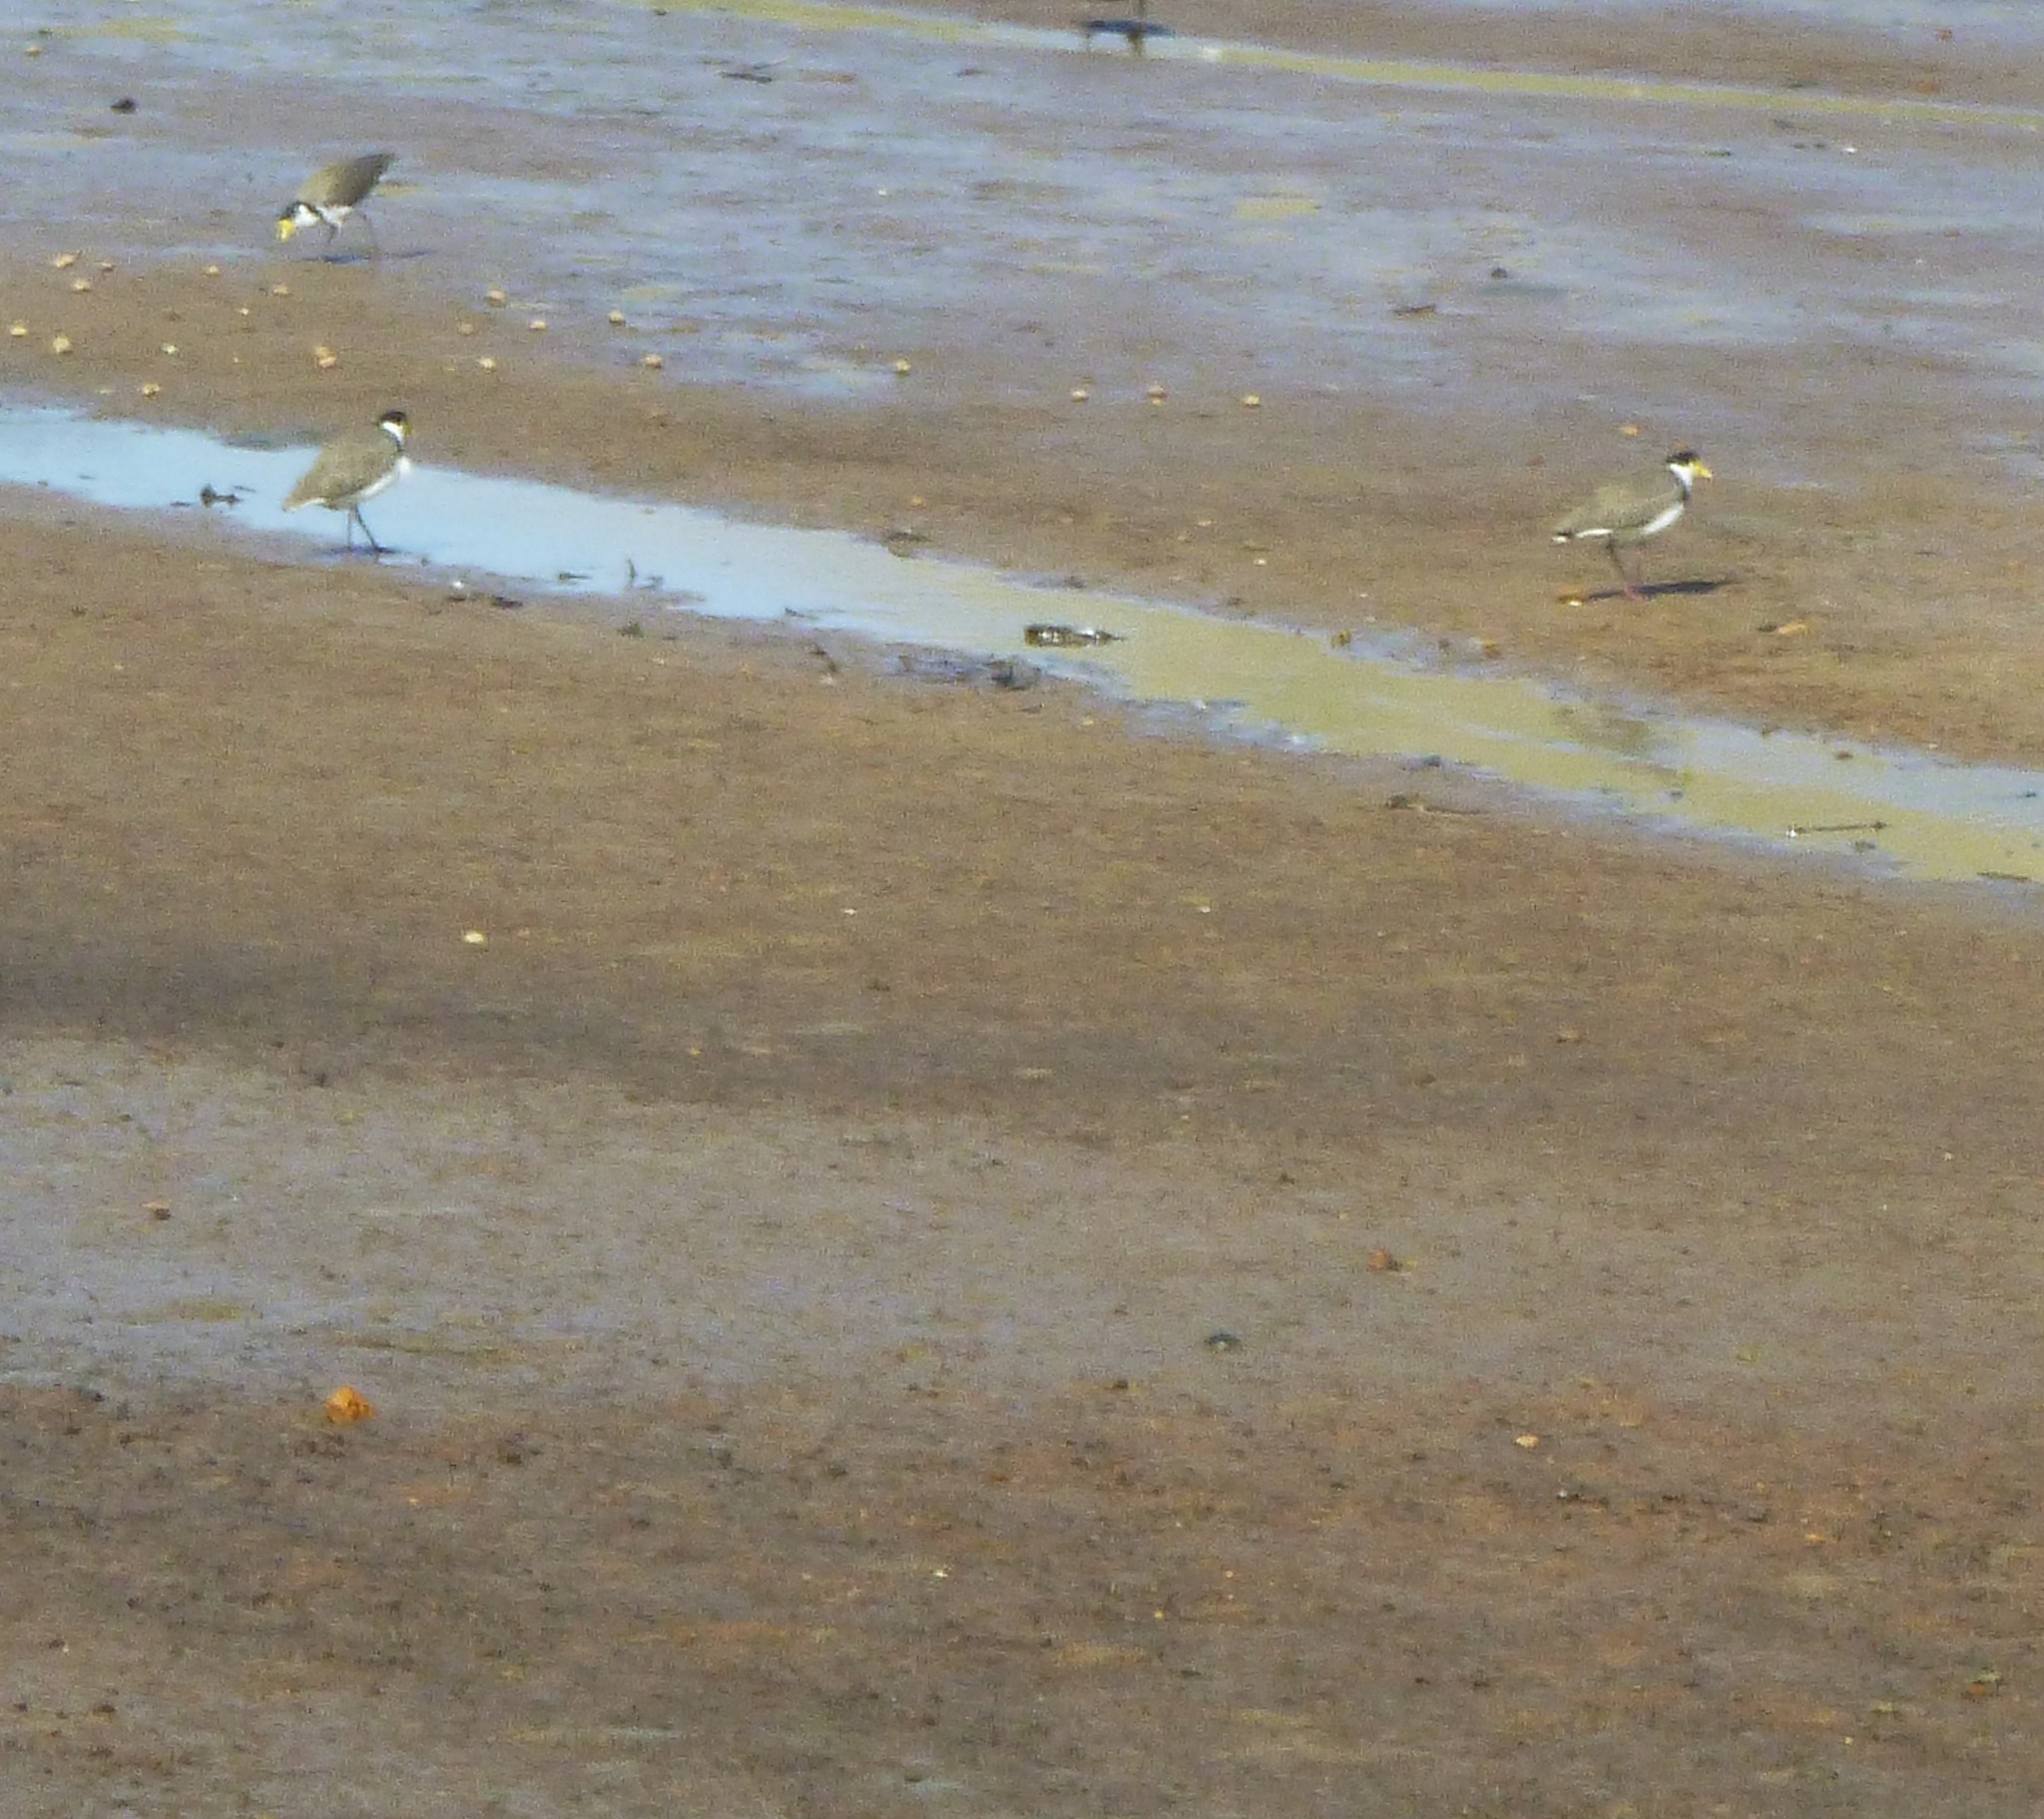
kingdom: Animalia
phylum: Chordata
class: Aves
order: Charadriiformes
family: Charadriidae
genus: Vanellus
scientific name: Vanellus miles
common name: Masked lapwing
